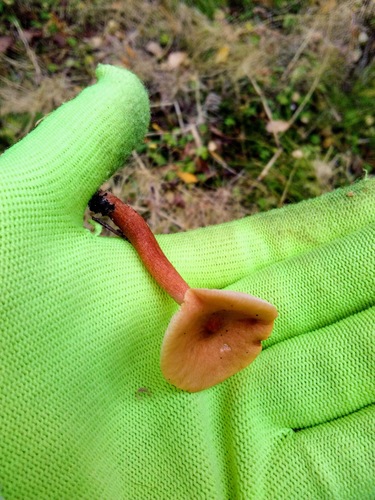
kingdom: Fungi
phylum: Basidiomycota
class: Agaricomycetes
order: Russulales
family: Russulaceae
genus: Lactarius
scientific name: Lactarius aurantiacus
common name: Orange milkcap
